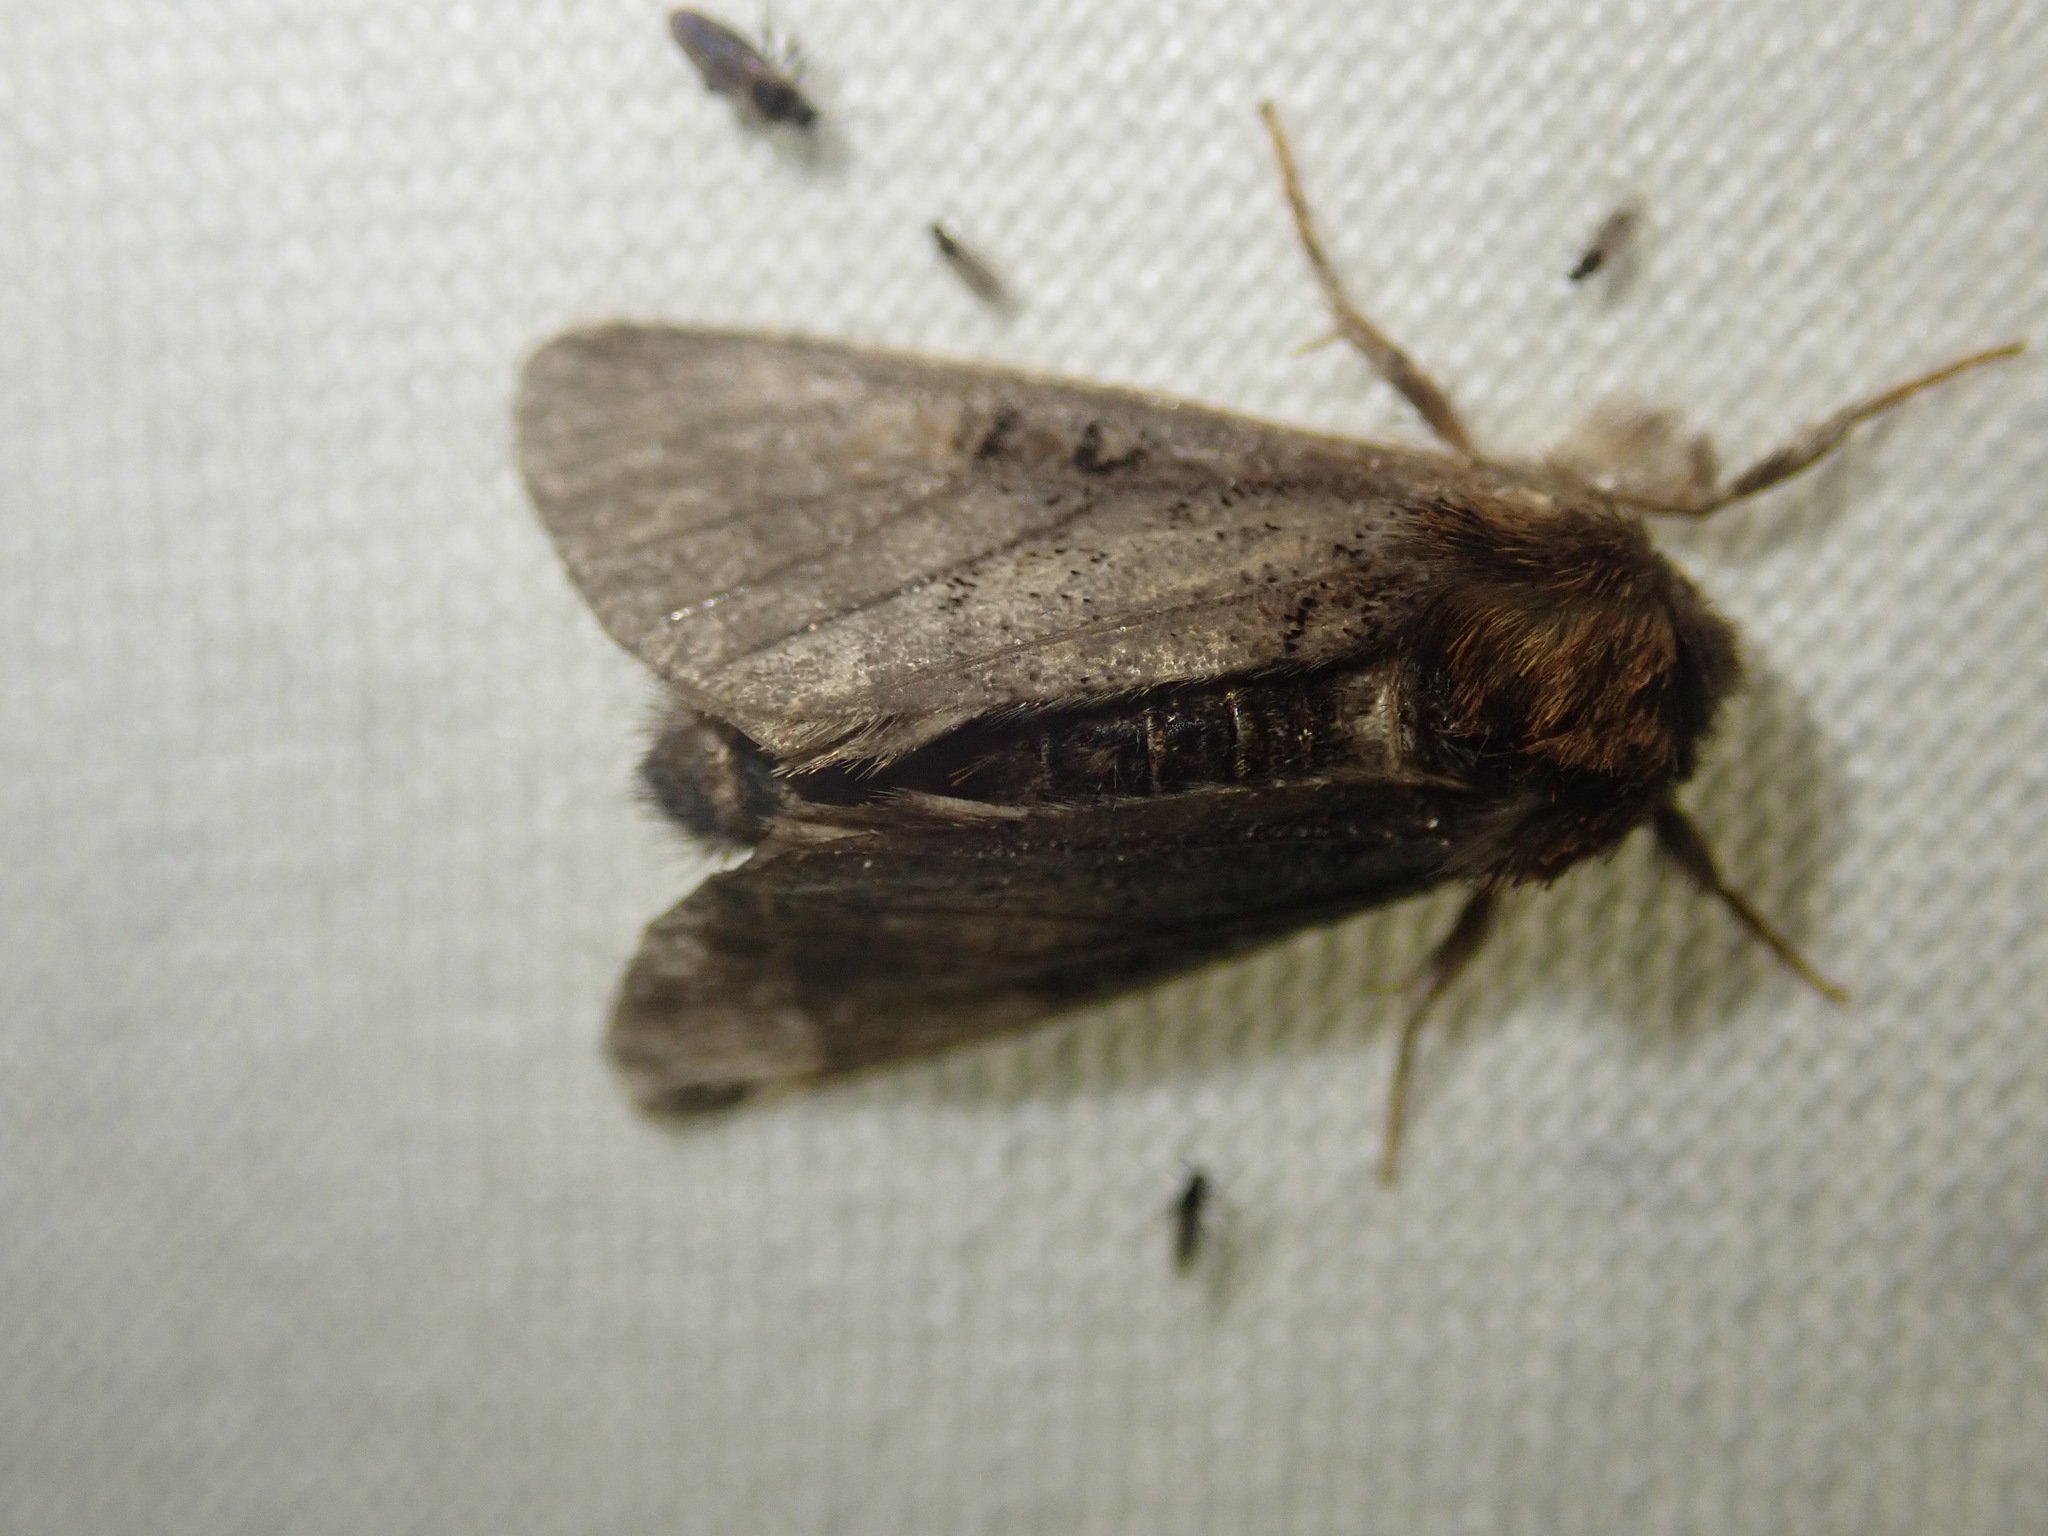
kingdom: Animalia
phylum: Arthropoda
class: Insecta
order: Lepidoptera
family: Noctuidae
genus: Colocasia
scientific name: Colocasia coryli
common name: Nut-tree tussock
